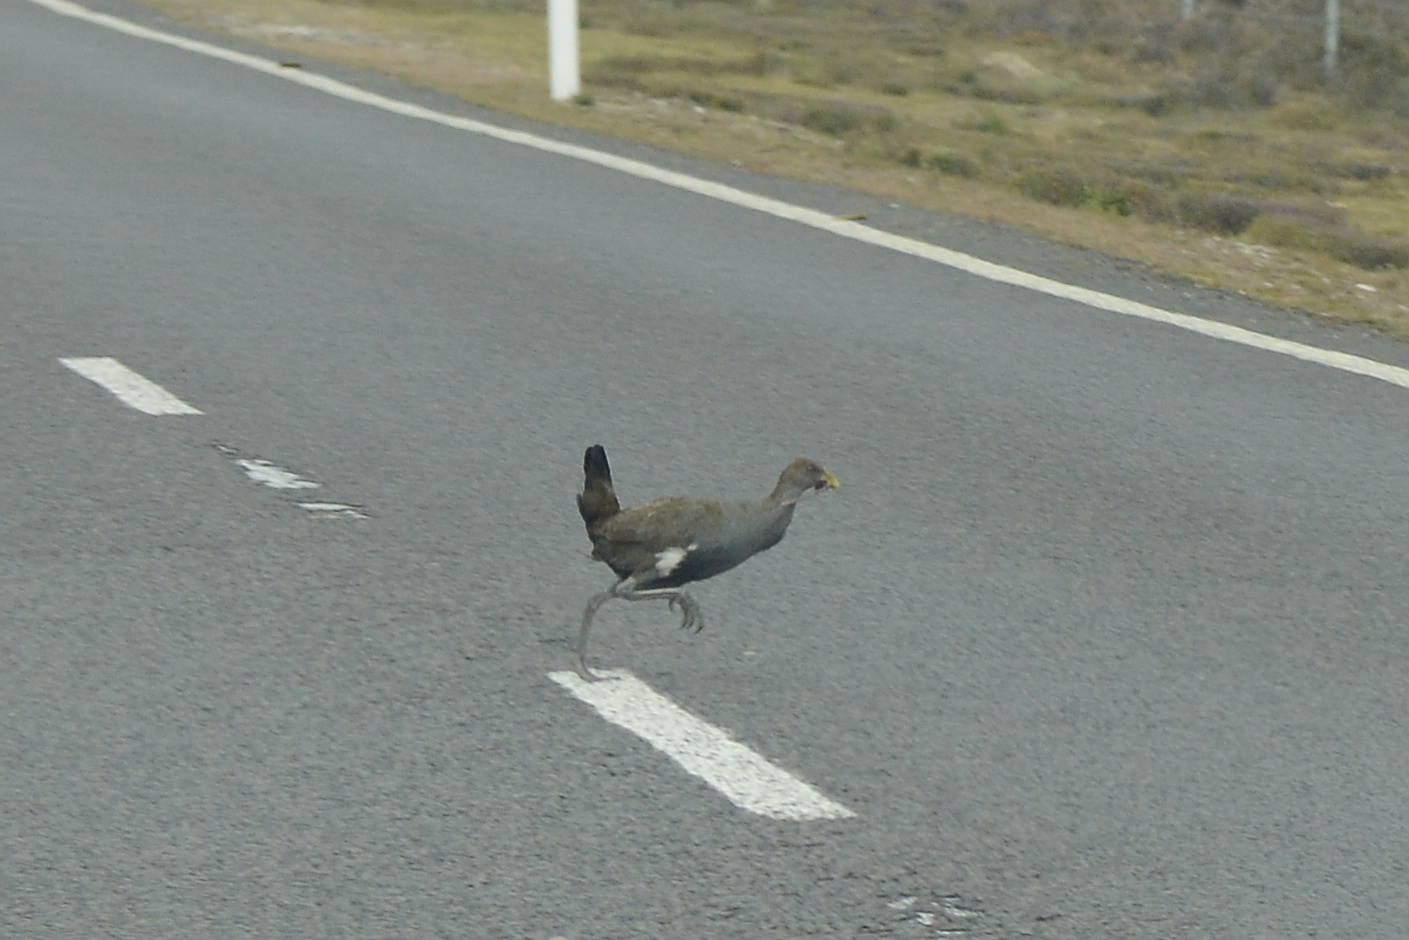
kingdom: Animalia
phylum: Chordata
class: Aves
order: Gruiformes
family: Rallidae
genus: Gallinula
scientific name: Gallinula mortierii
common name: Tasmanian nativehen
